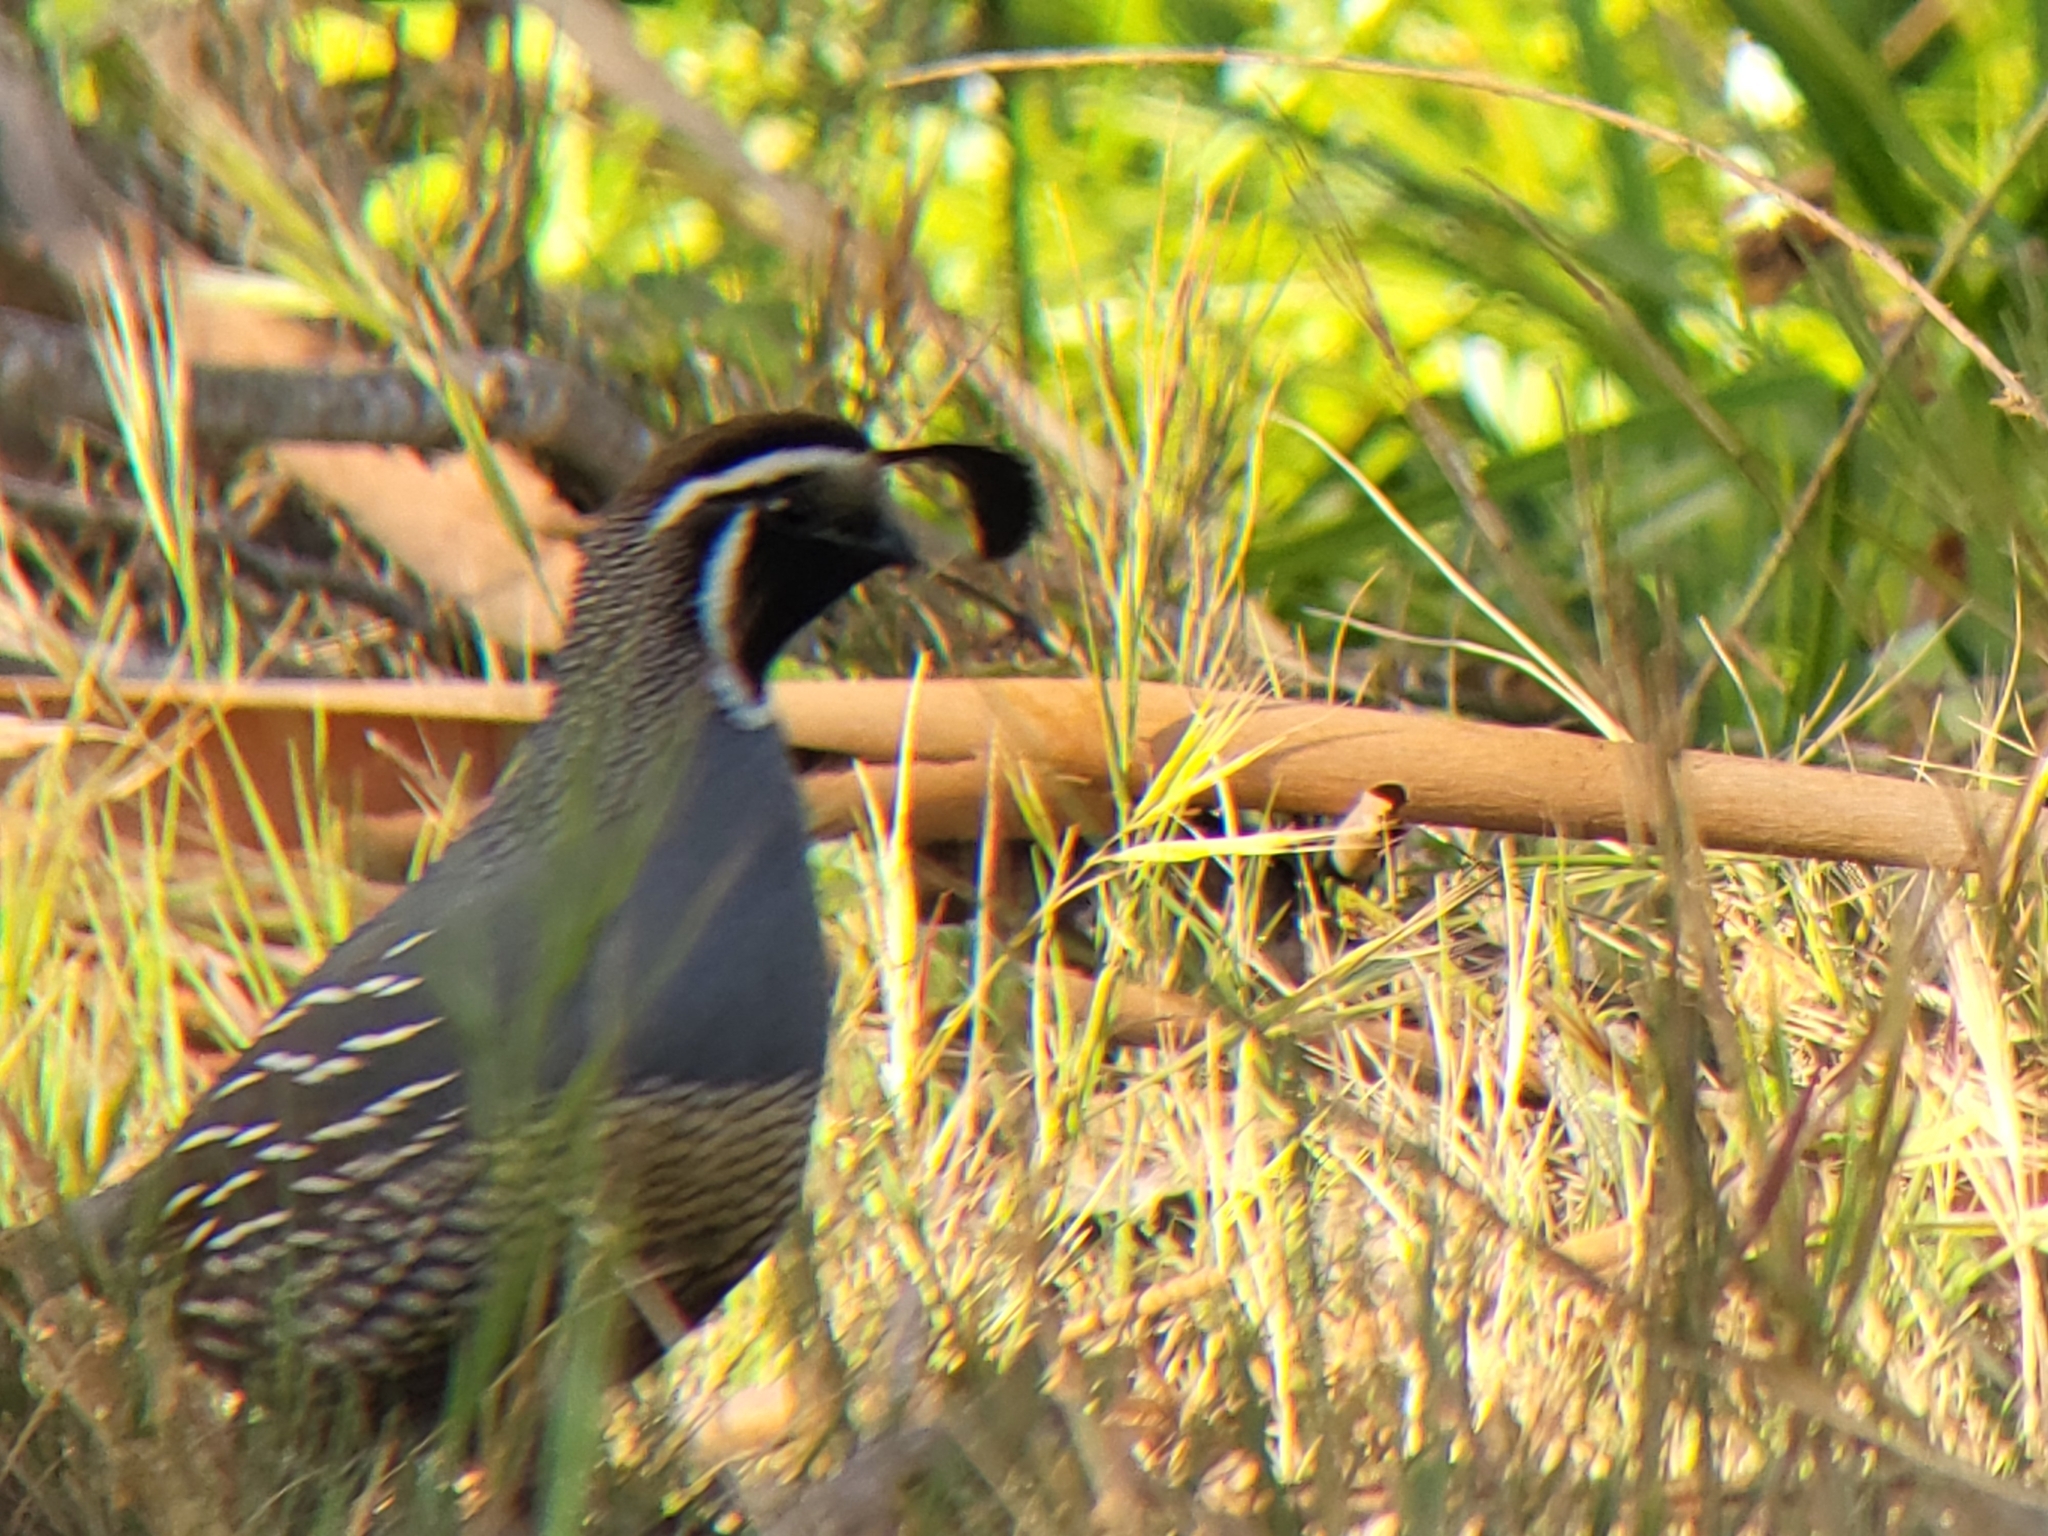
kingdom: Animalia
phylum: Chordata
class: Aves
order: Galliformes
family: Odontophoridae
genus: Callipepla
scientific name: Callipepla californica
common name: California quail
